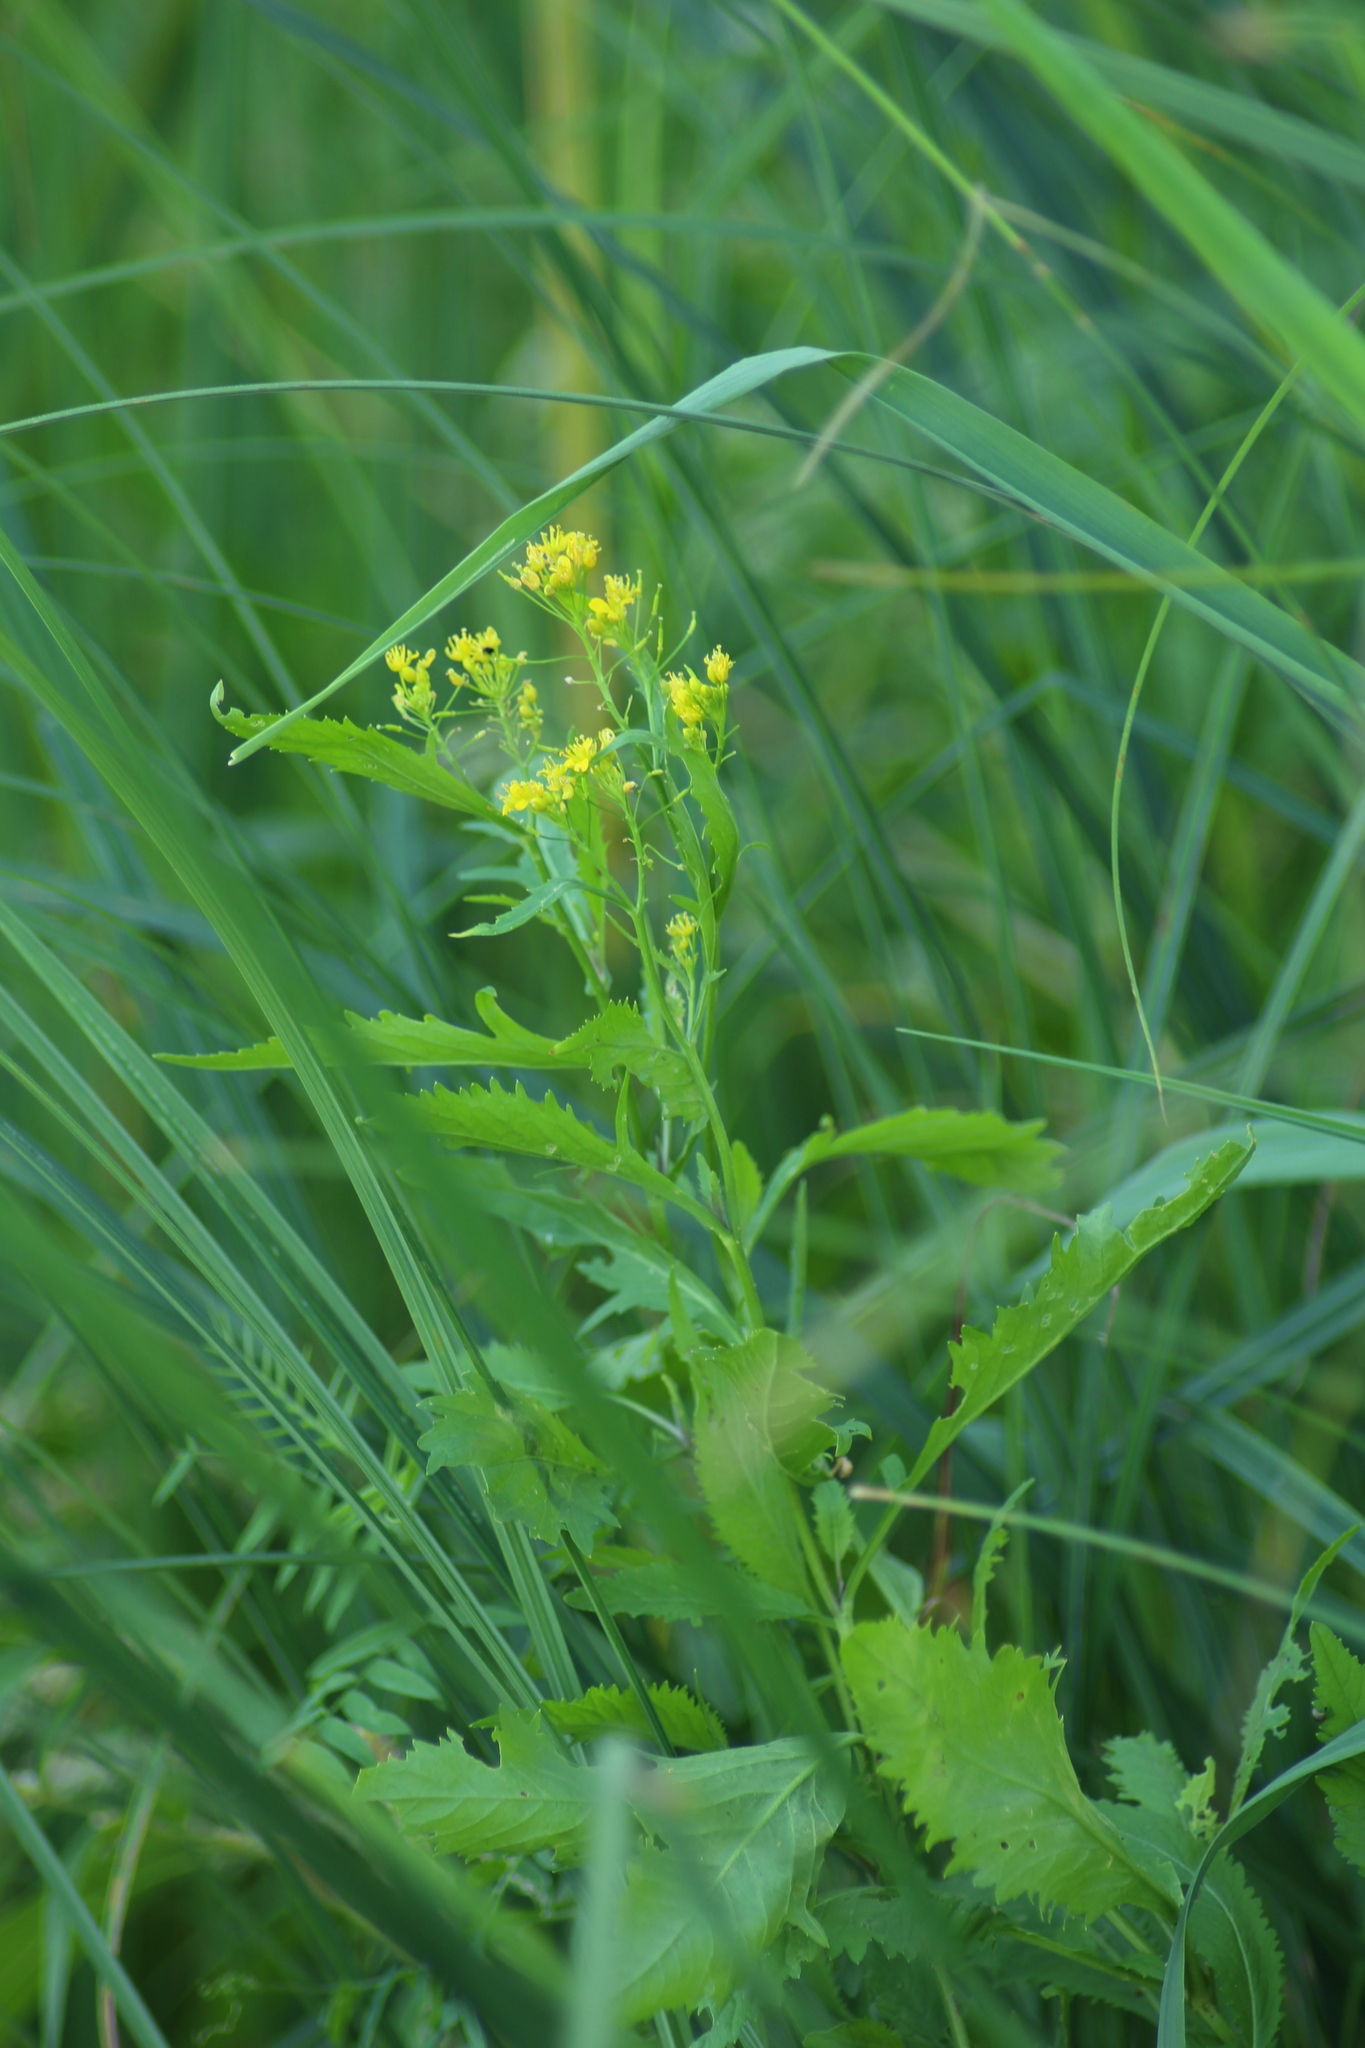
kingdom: Plantae
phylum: Tracheophyta
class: Magnoliopsida
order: Brassicales
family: Brassicaceae
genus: Rorippa
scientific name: Rorippa anceps
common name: Rorippa
